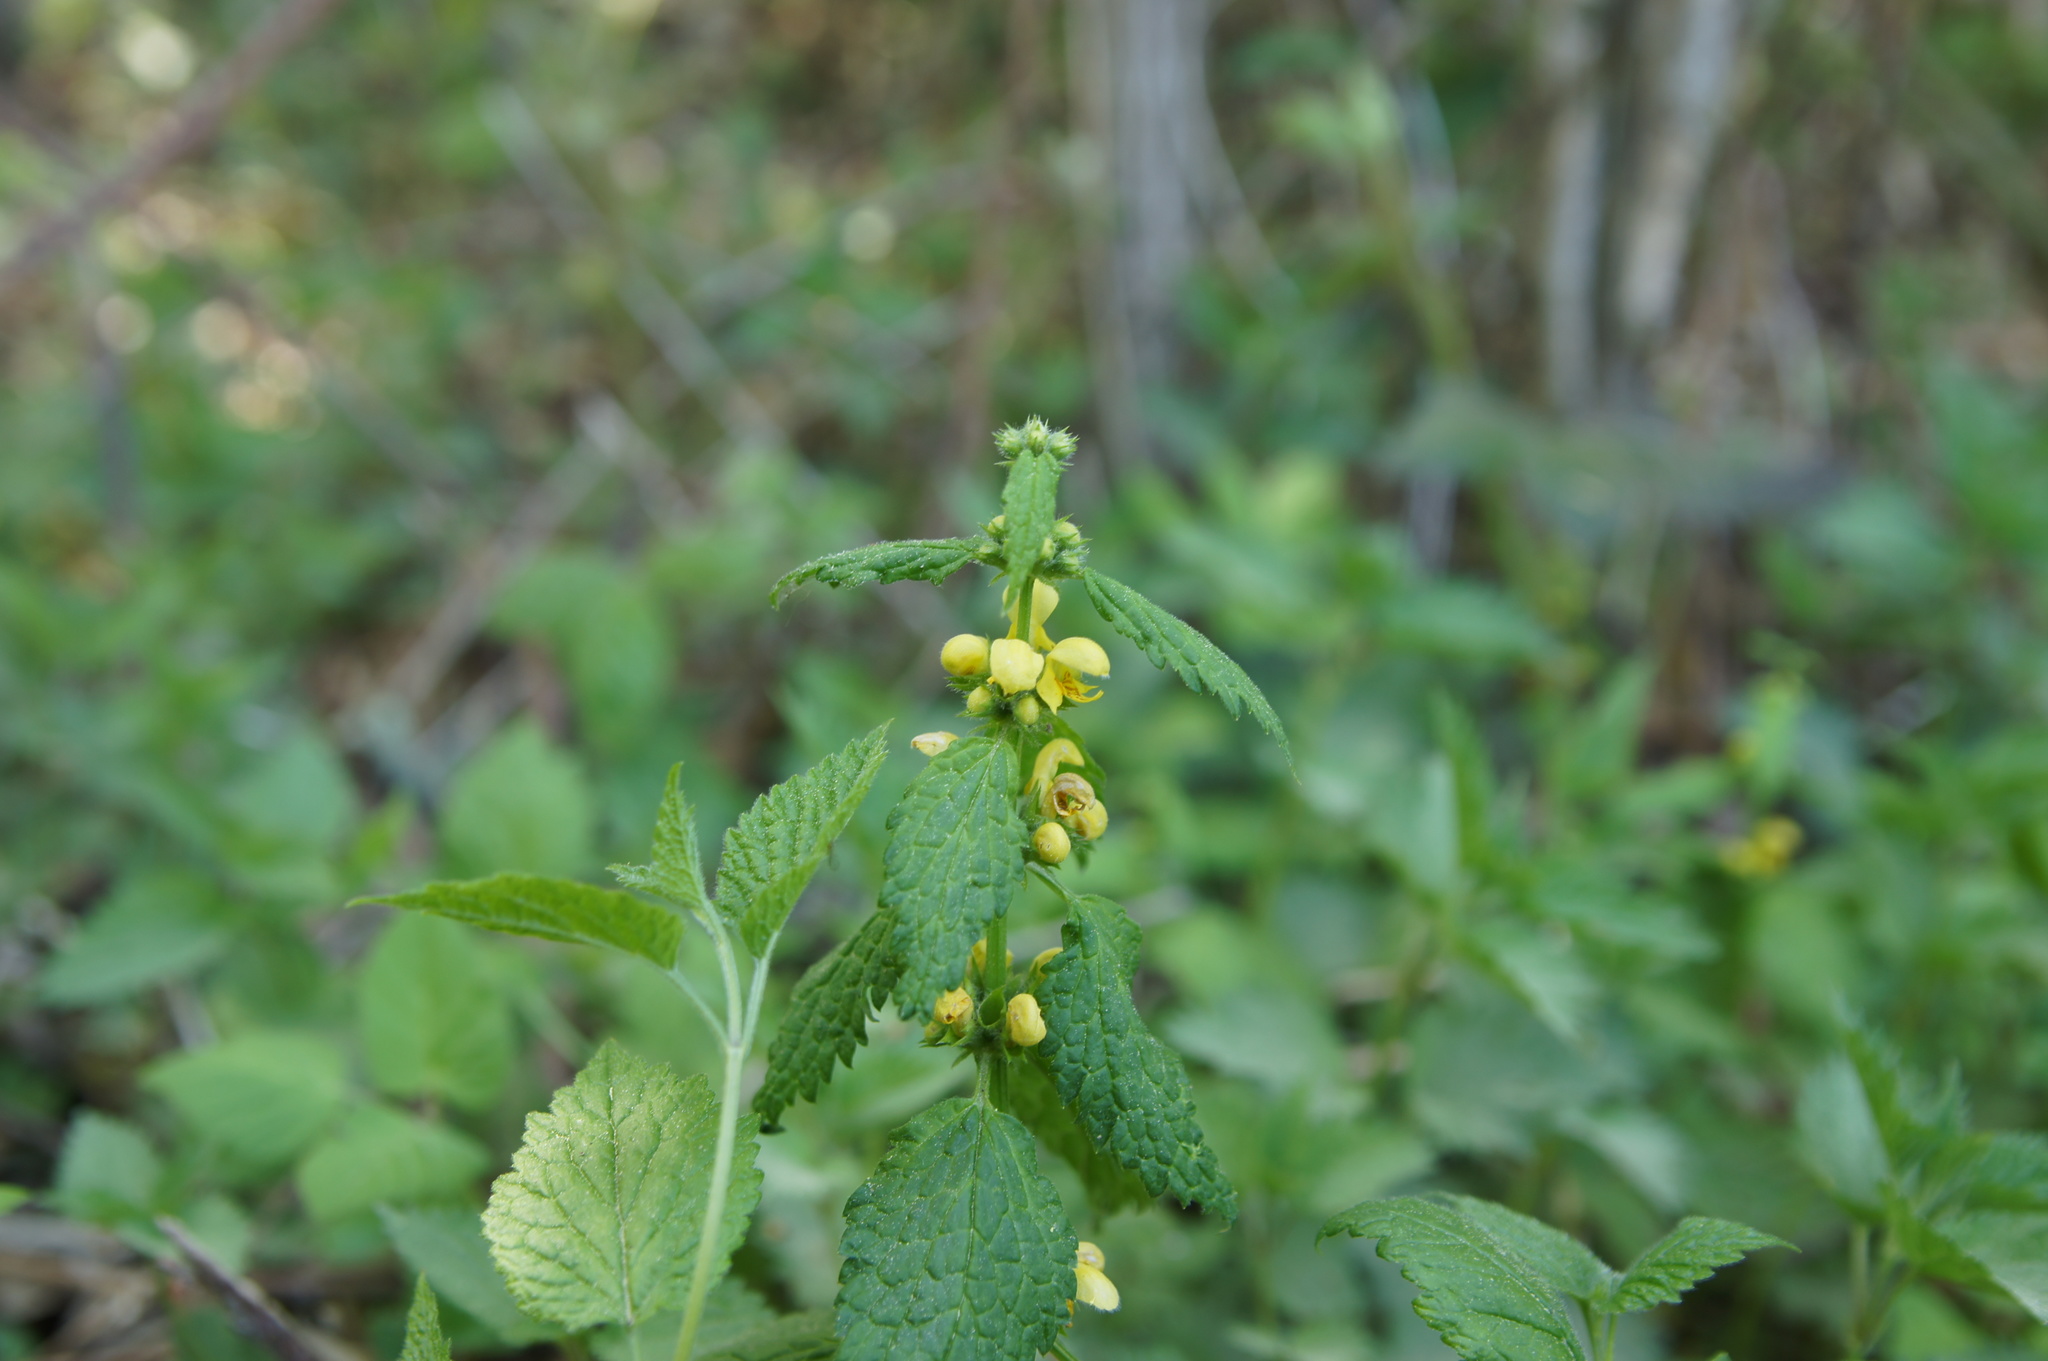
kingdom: Plantae
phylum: Tracheophyta
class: Magnoliopsida
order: Lamiales
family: Lamiaceae
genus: Lamium
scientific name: Lamium galeobdolon
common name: Yellow archangel
